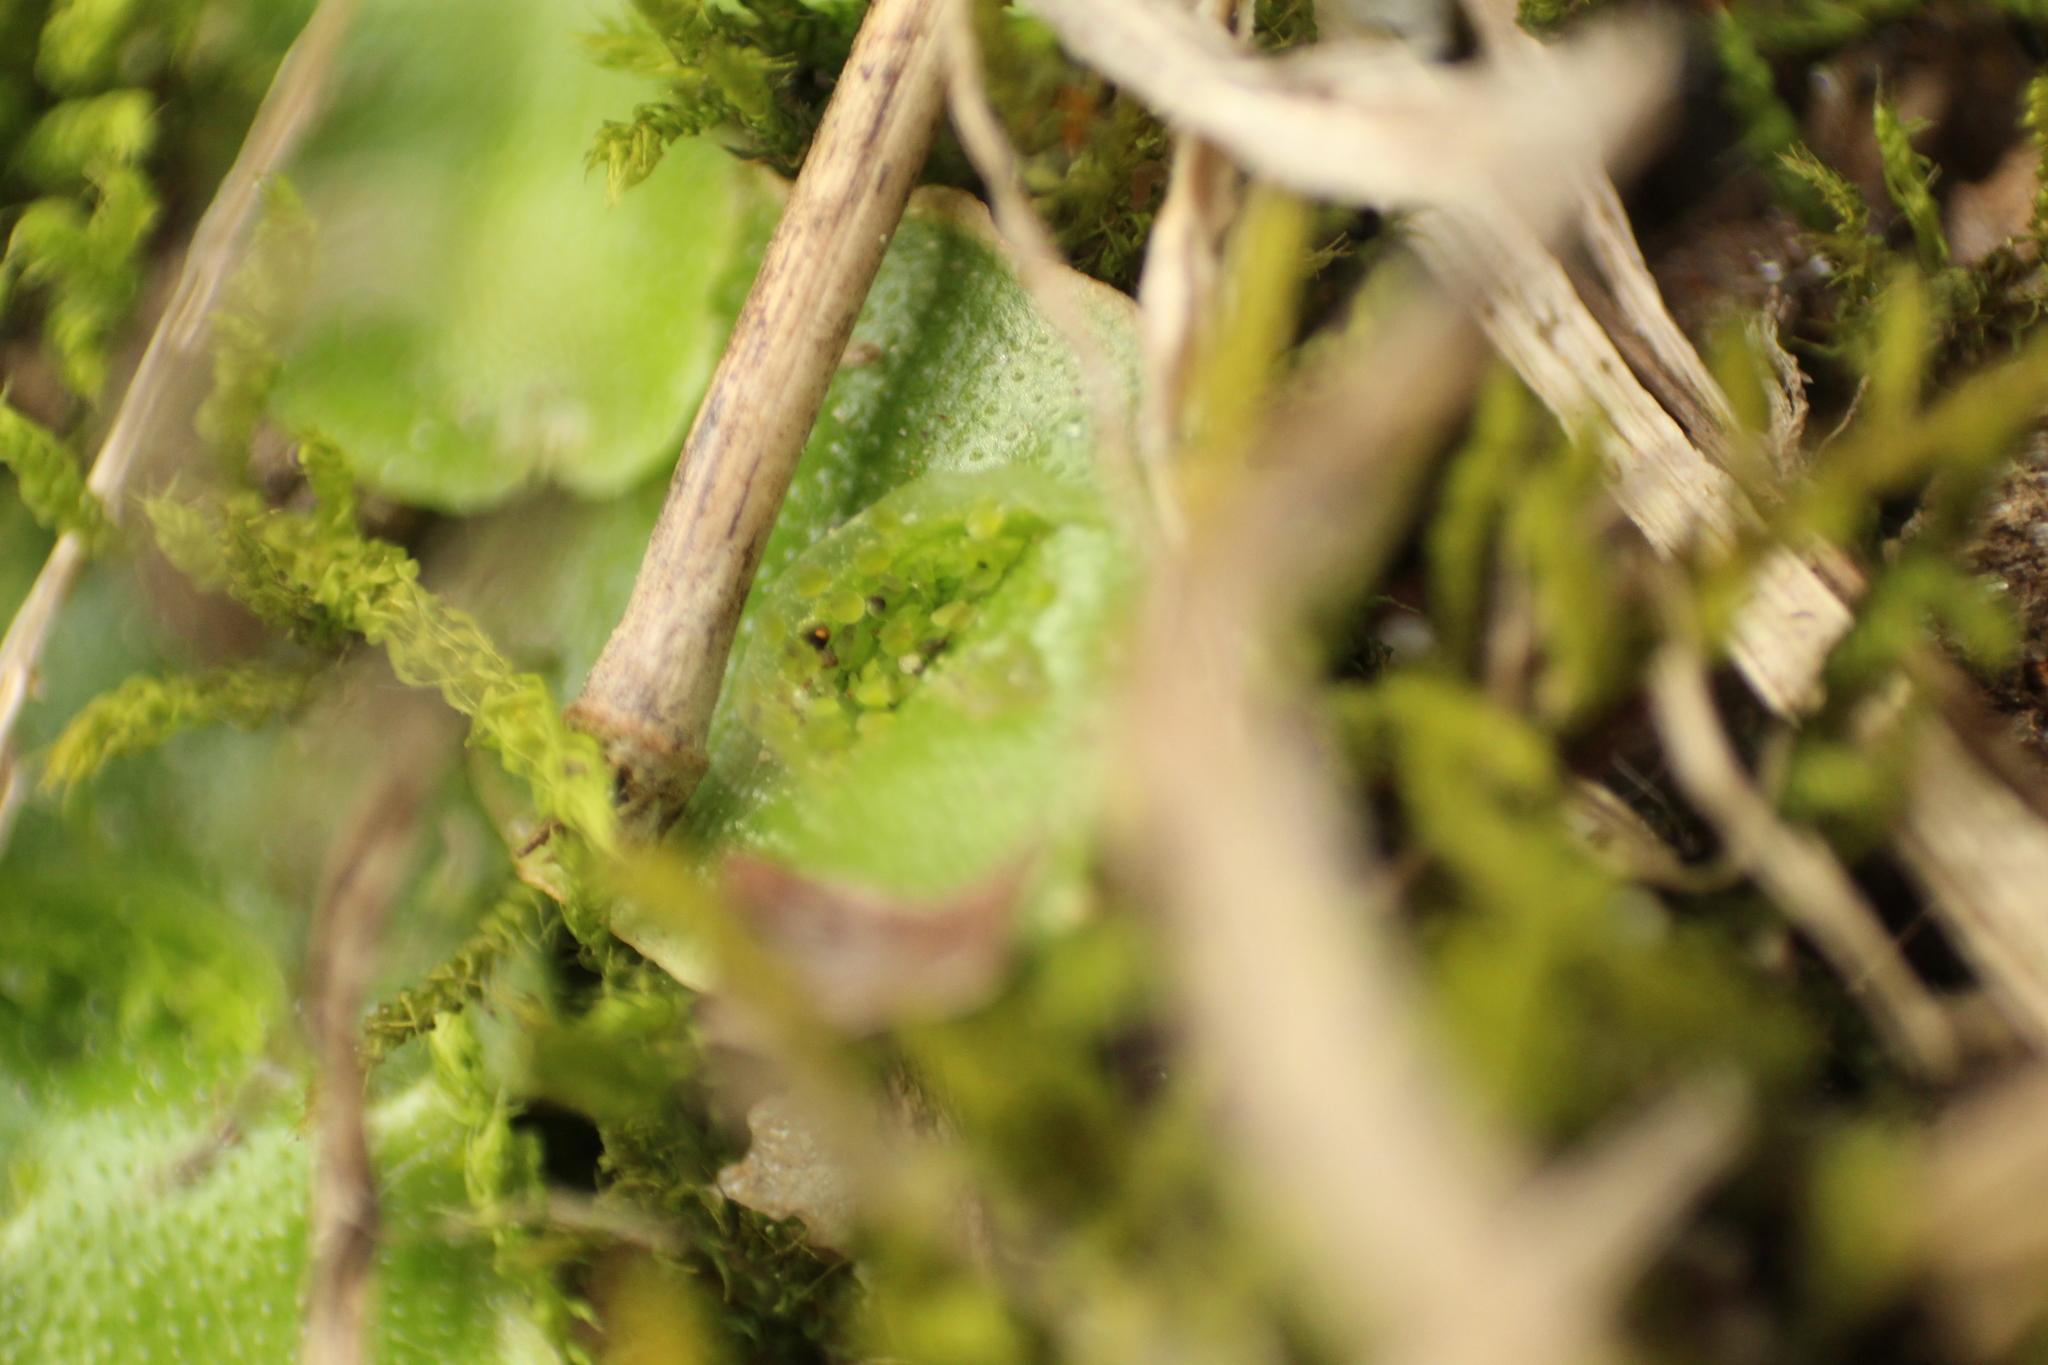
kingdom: Plantae
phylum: Marchantiophyta
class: Marchantiopsida
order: Lunulariales
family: Lunulariaceae
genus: Lunularia
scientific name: Lunularia cruciata
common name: Crescent-cup liverwort
